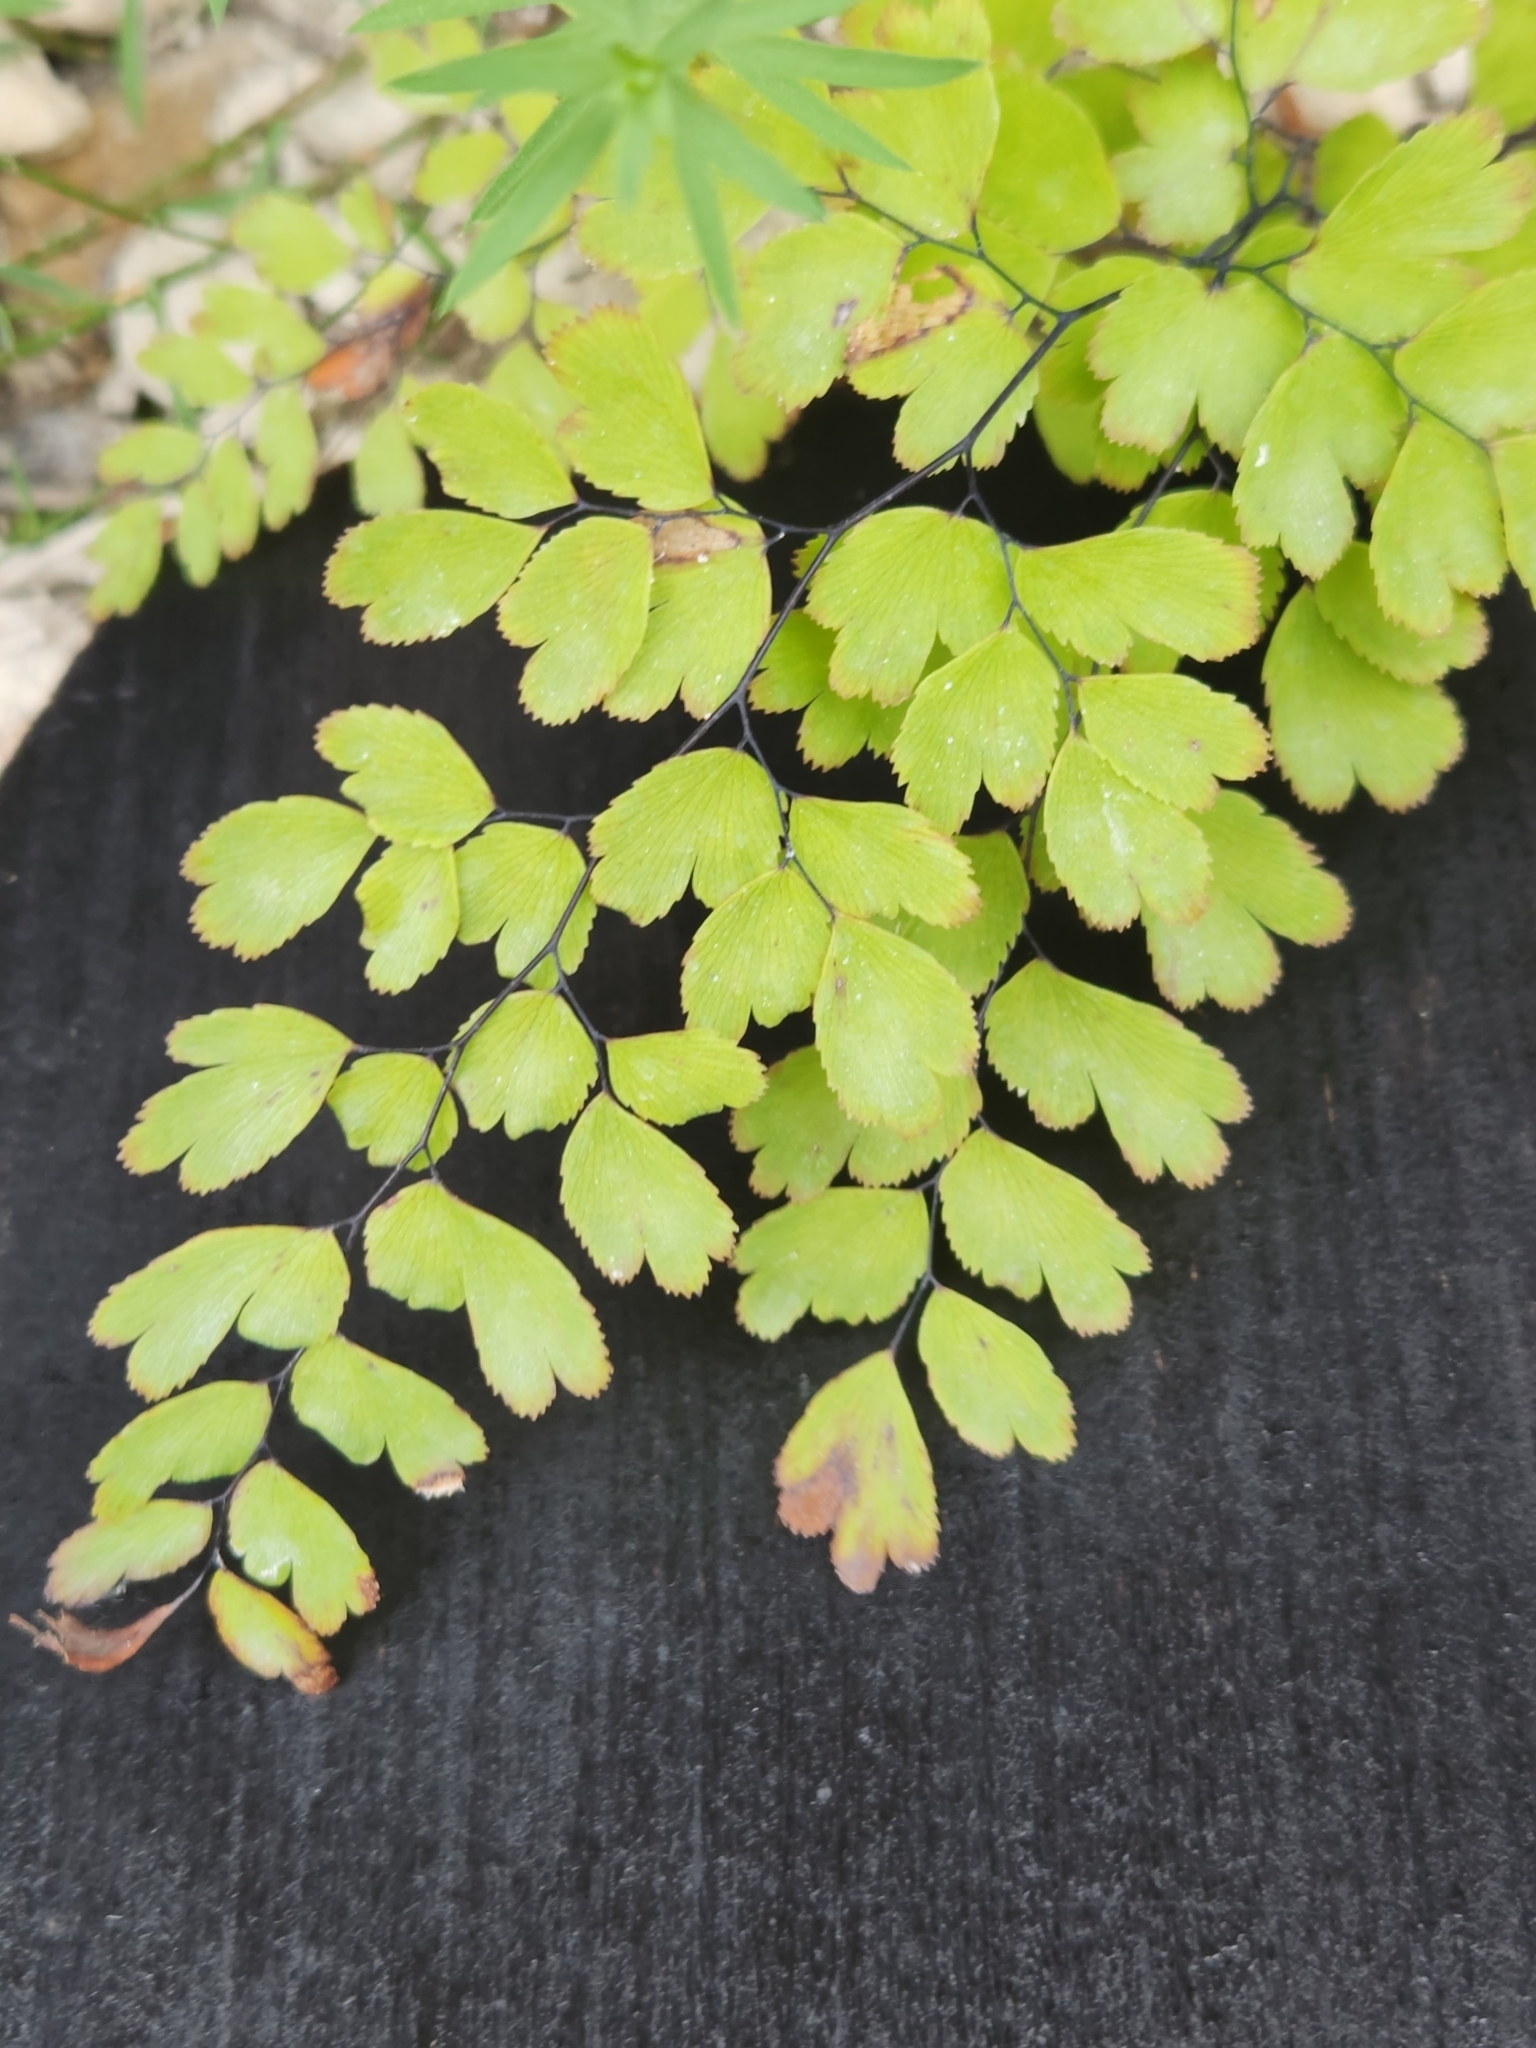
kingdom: Plantae
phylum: Tracheophyta
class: Polypodiopsida
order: Polypodiales
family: Pteridaceae
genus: Adiantum
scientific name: Adiantum capillus-veneris
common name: Maidenhair fern
